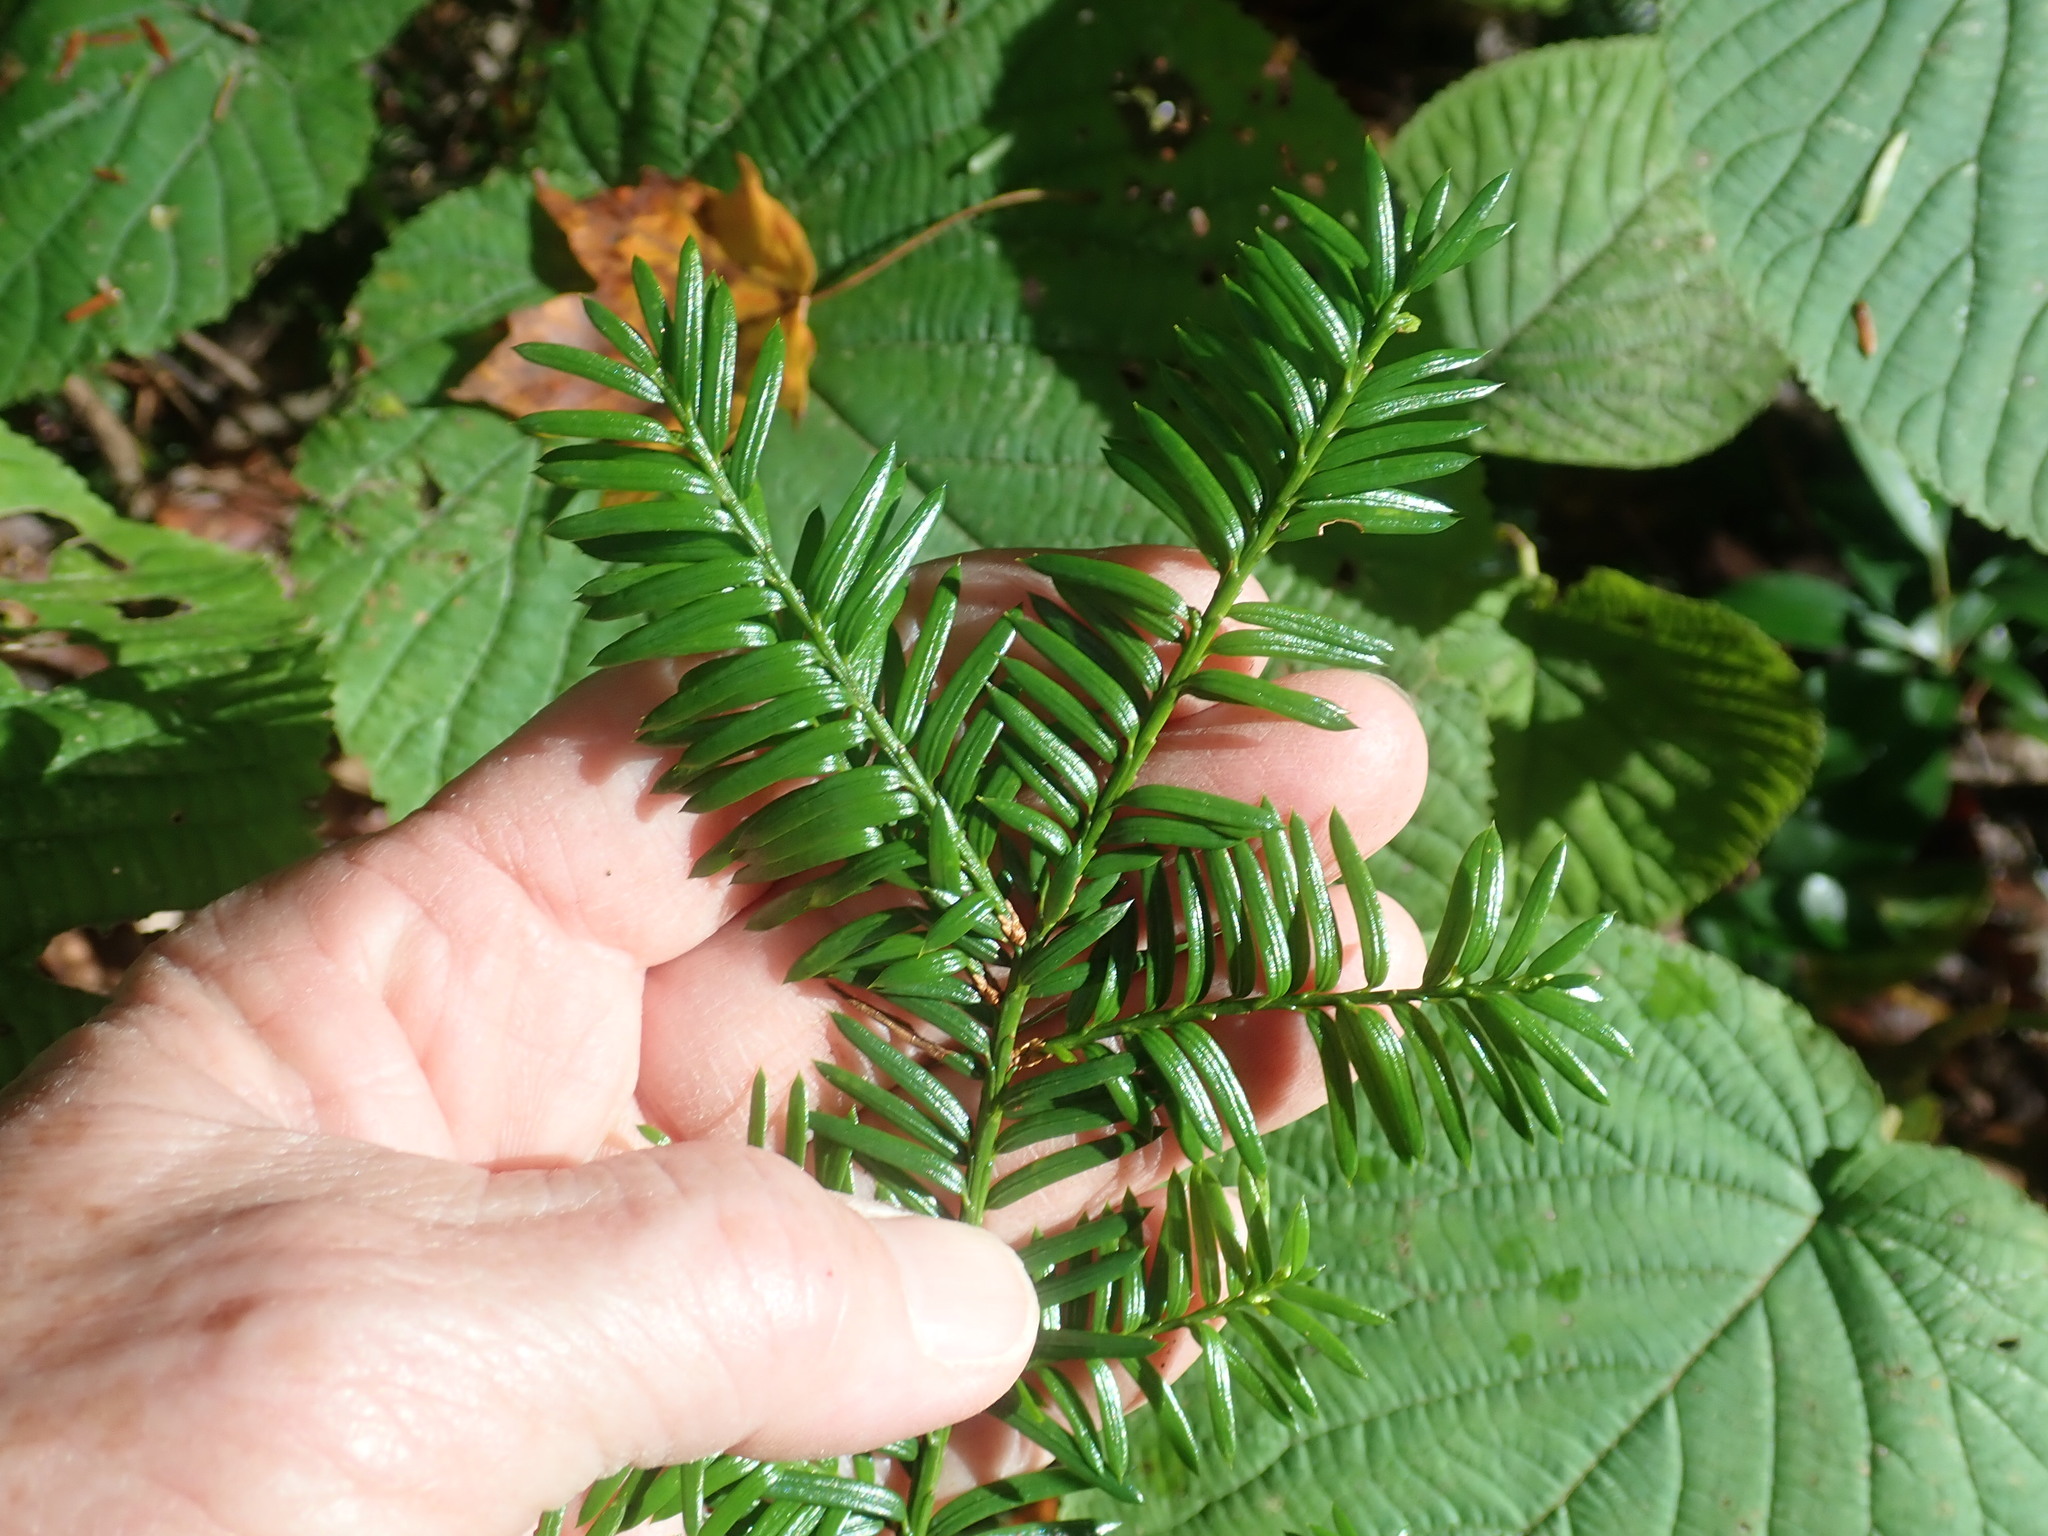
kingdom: Plantae
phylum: Tracheophyta
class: Pinopsida
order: Pinales
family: Taxaceae
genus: Taxus
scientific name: Taxus canadensis
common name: American yew
